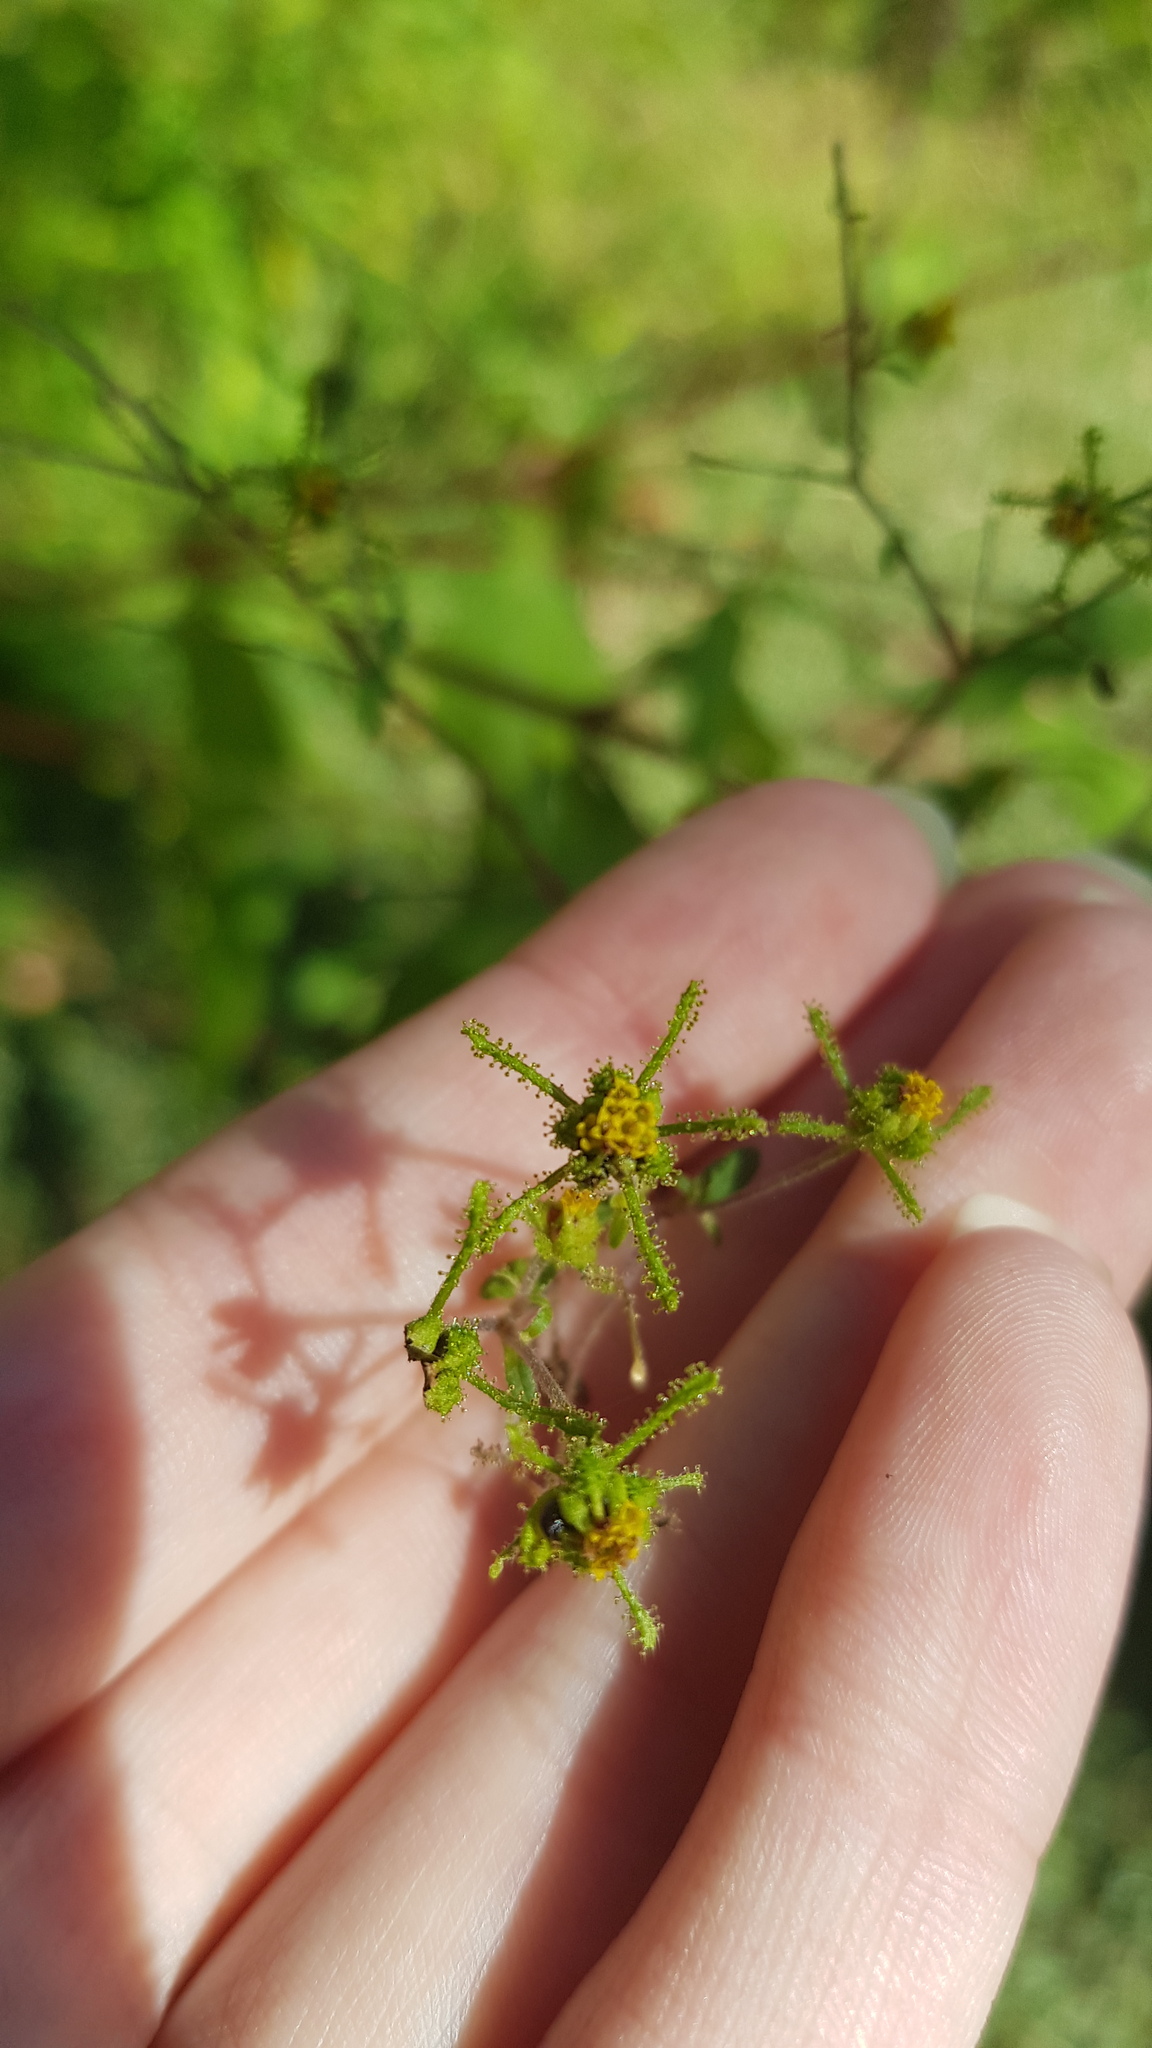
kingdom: Plantae
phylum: Tracheophyta
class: Magnoliopsida
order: Asterales
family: Asteraceae
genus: Sigesbeckia
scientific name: Sigesbeckia orientalis
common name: Eastern st paul's-wort
